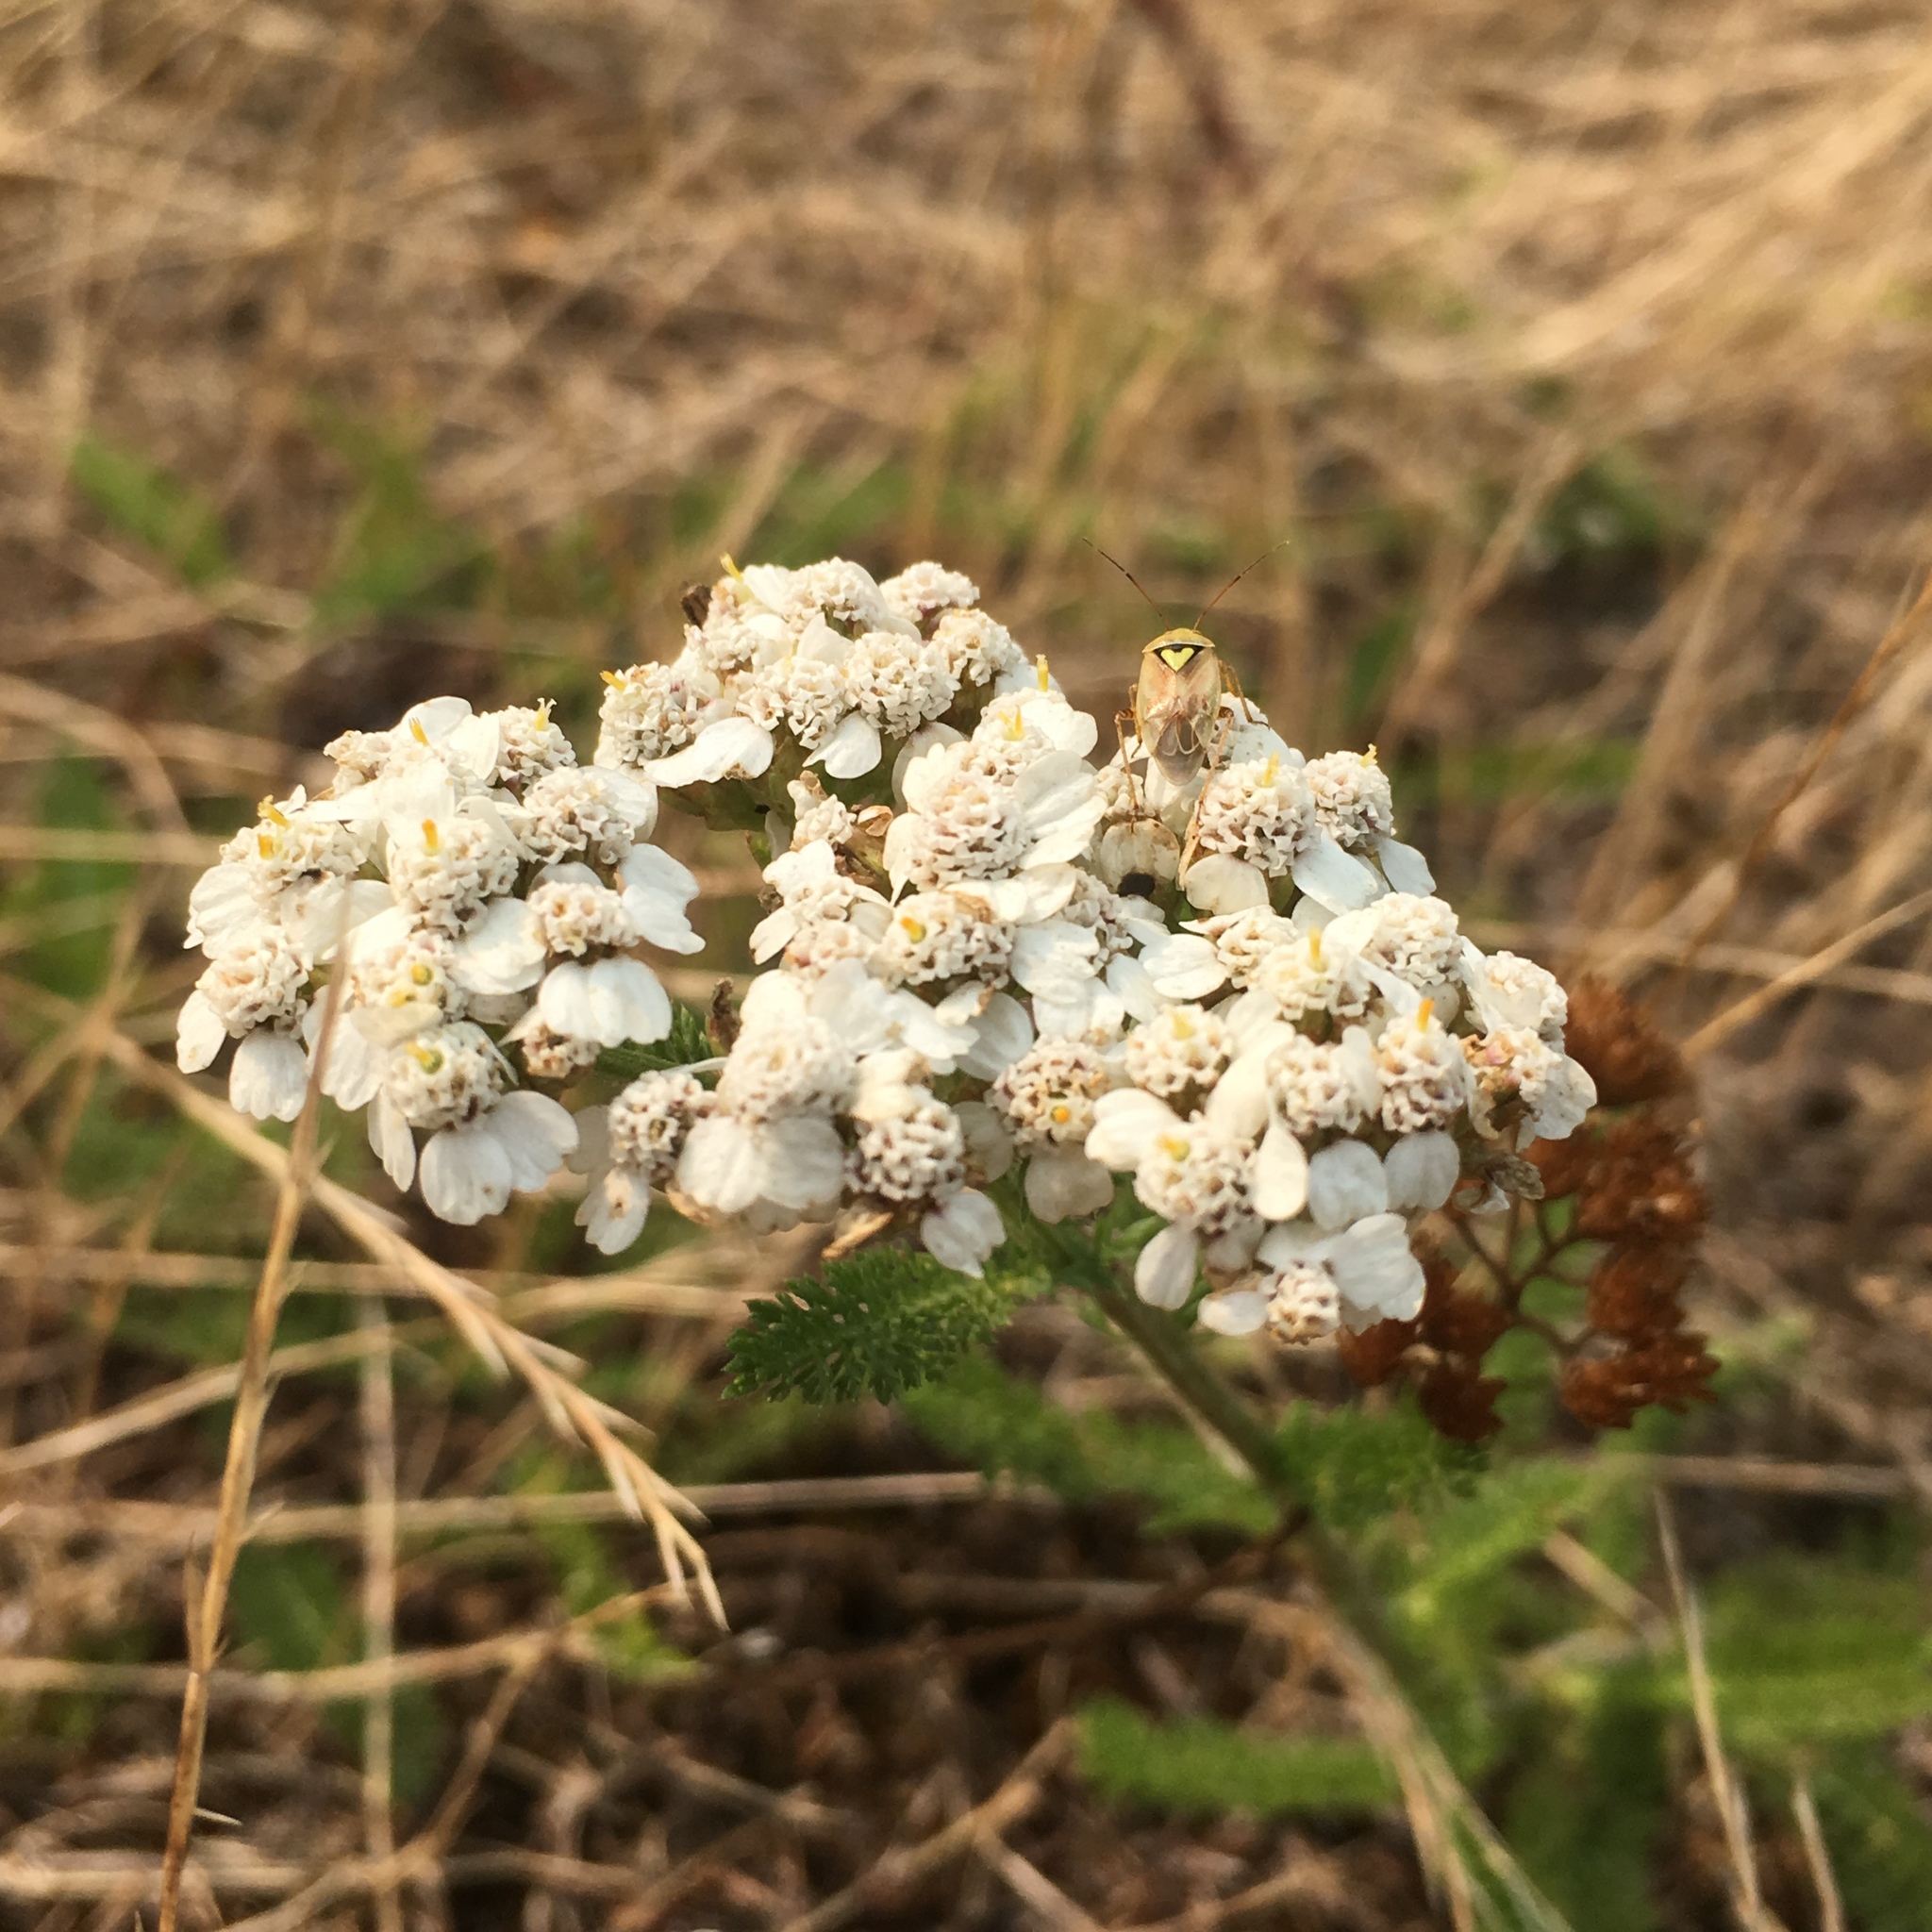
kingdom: Plantae
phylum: Tracheophyta
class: Magnoliopsida
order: Asterales
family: Asteraceae
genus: Achillea
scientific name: Achillea millefolium
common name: Yarrow
